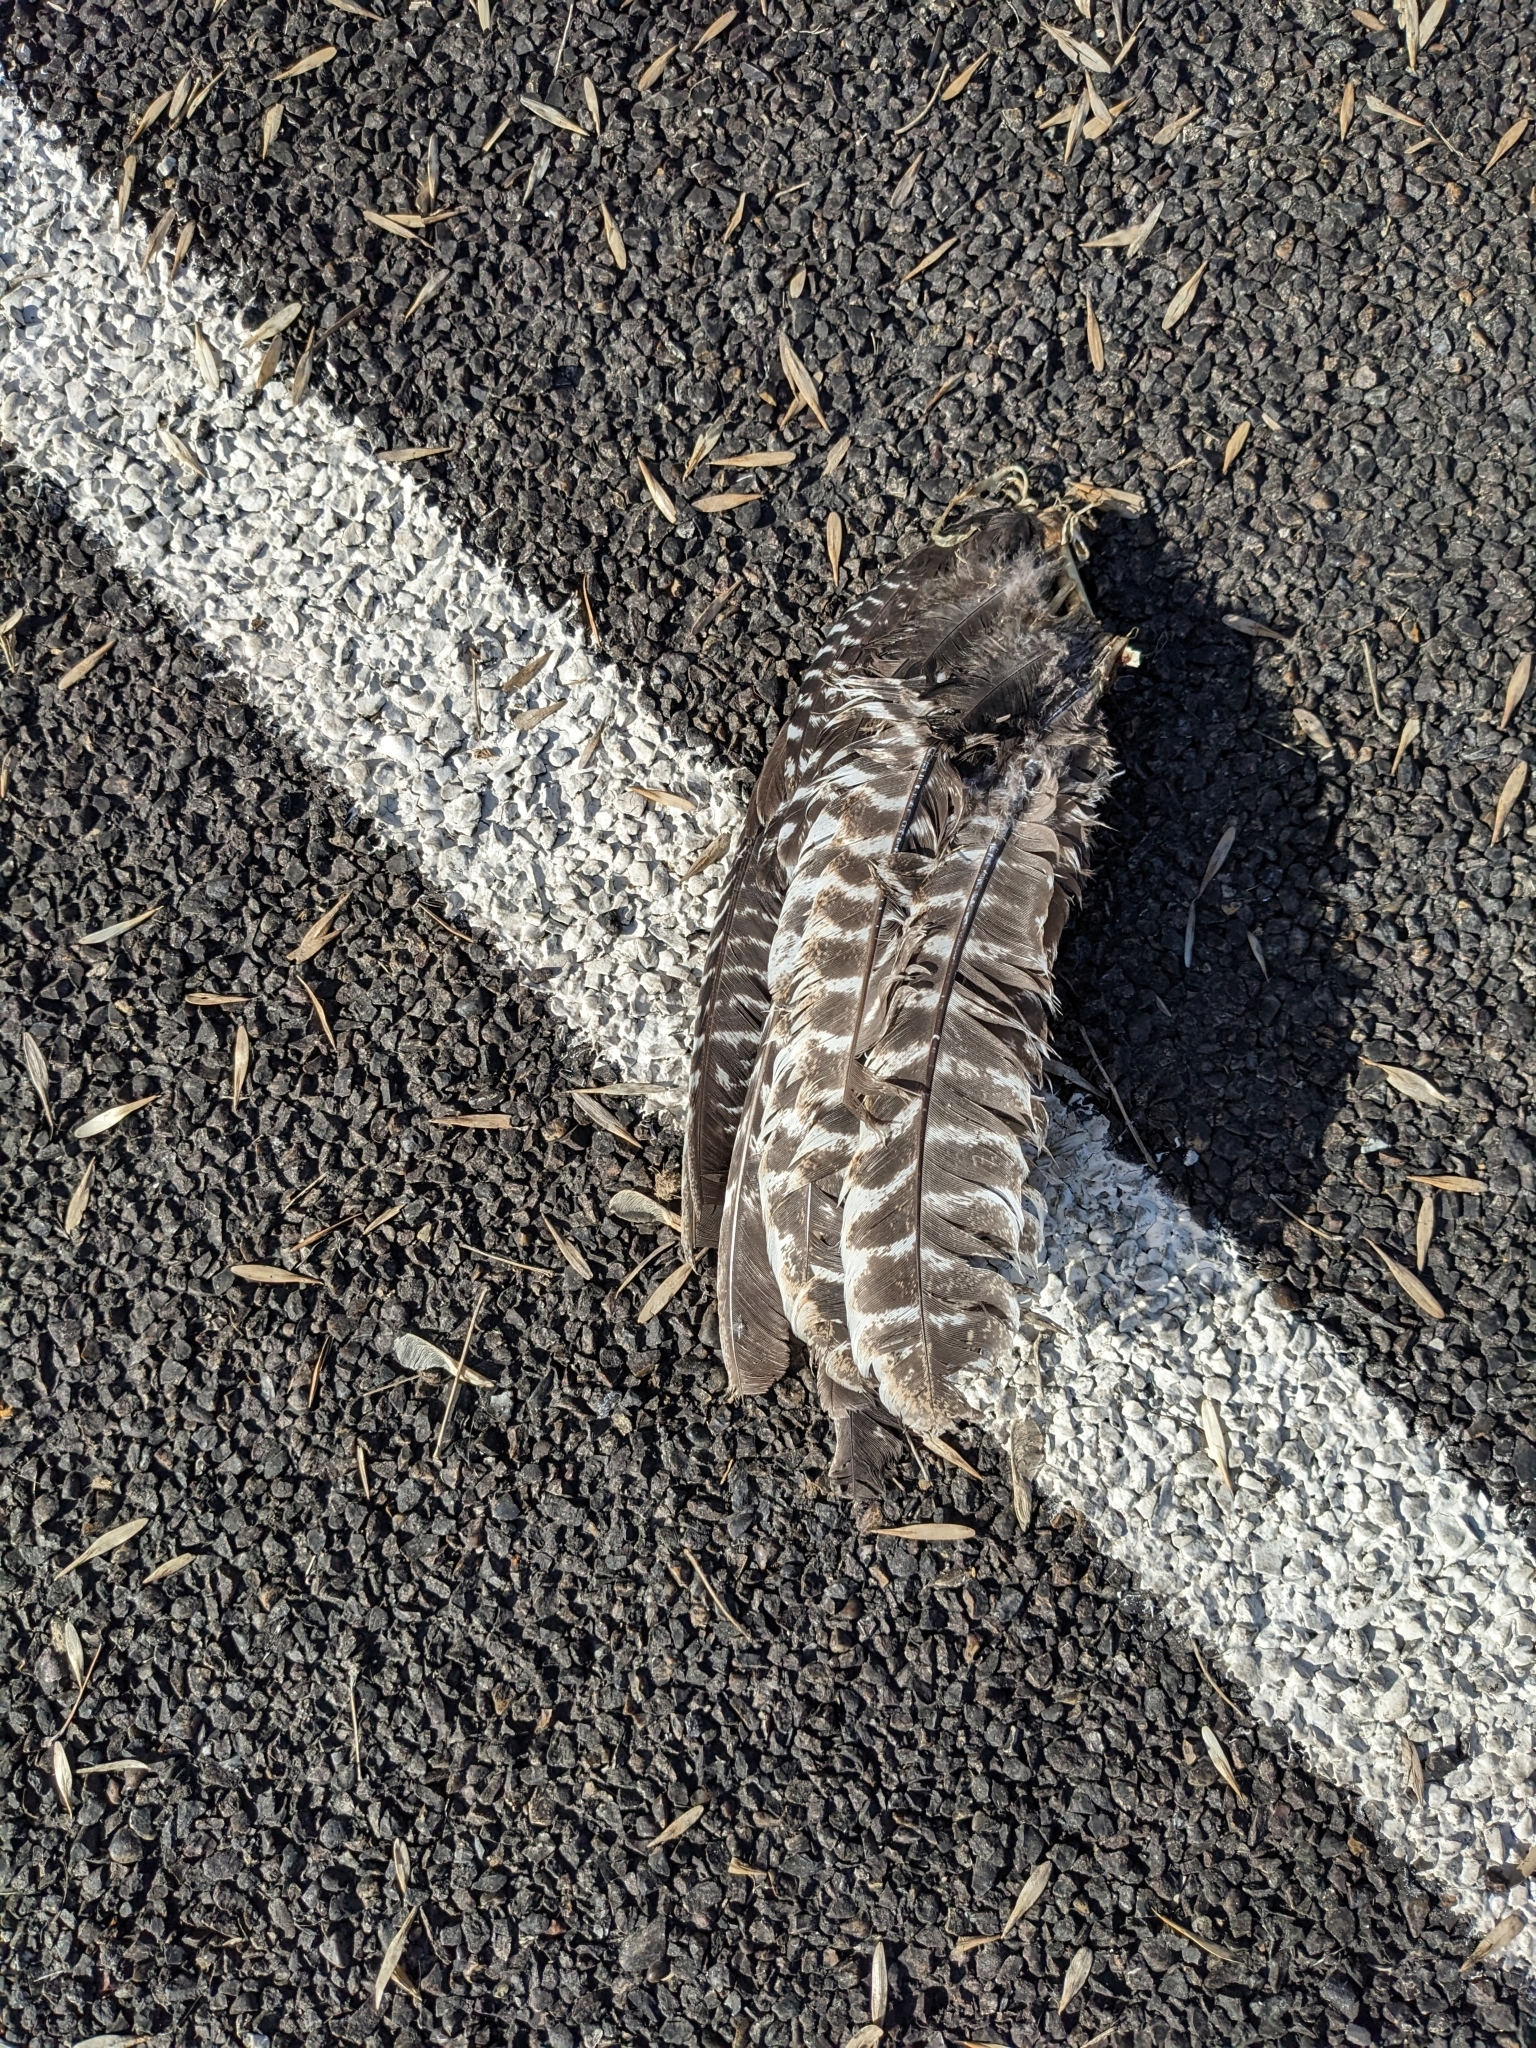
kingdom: Animalia
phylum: Chordata
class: Aves
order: Galliformes
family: Phasianidae
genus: Meleagris
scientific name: Meleagris gallopavo
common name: Wild turkey
